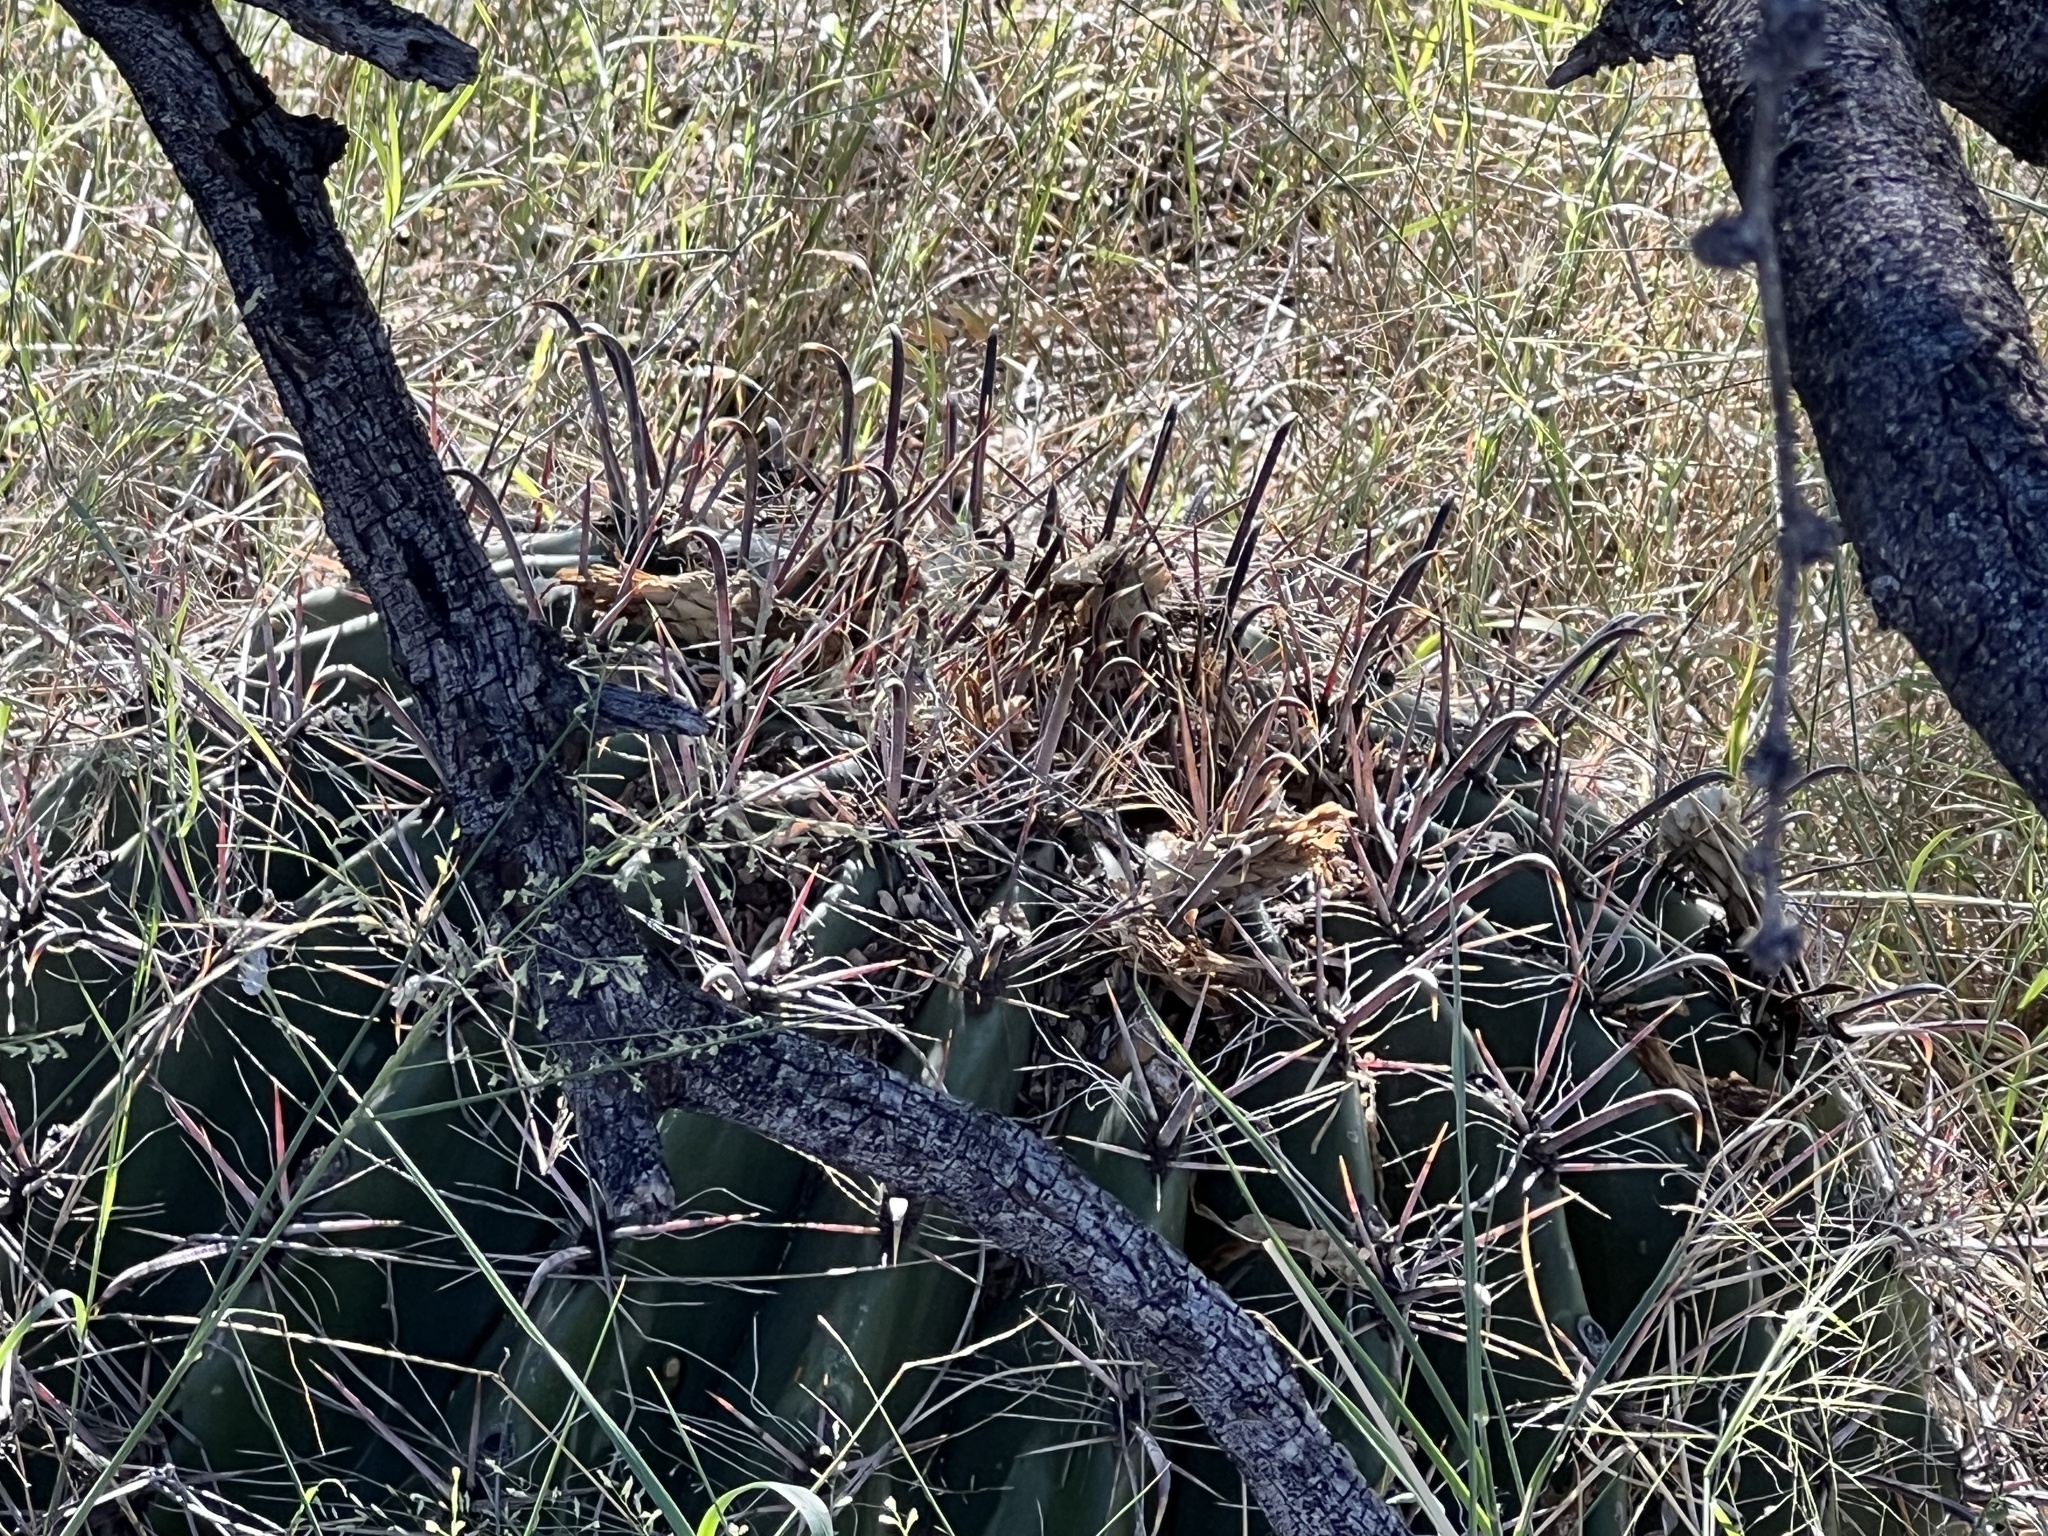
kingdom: Plantae
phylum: Tracheophyta
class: Magnoliopsida
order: Caryophyllales
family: Cactaceae
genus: Ferocactus
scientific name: Ferocactus wislizeni
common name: Candy barrel cactus
